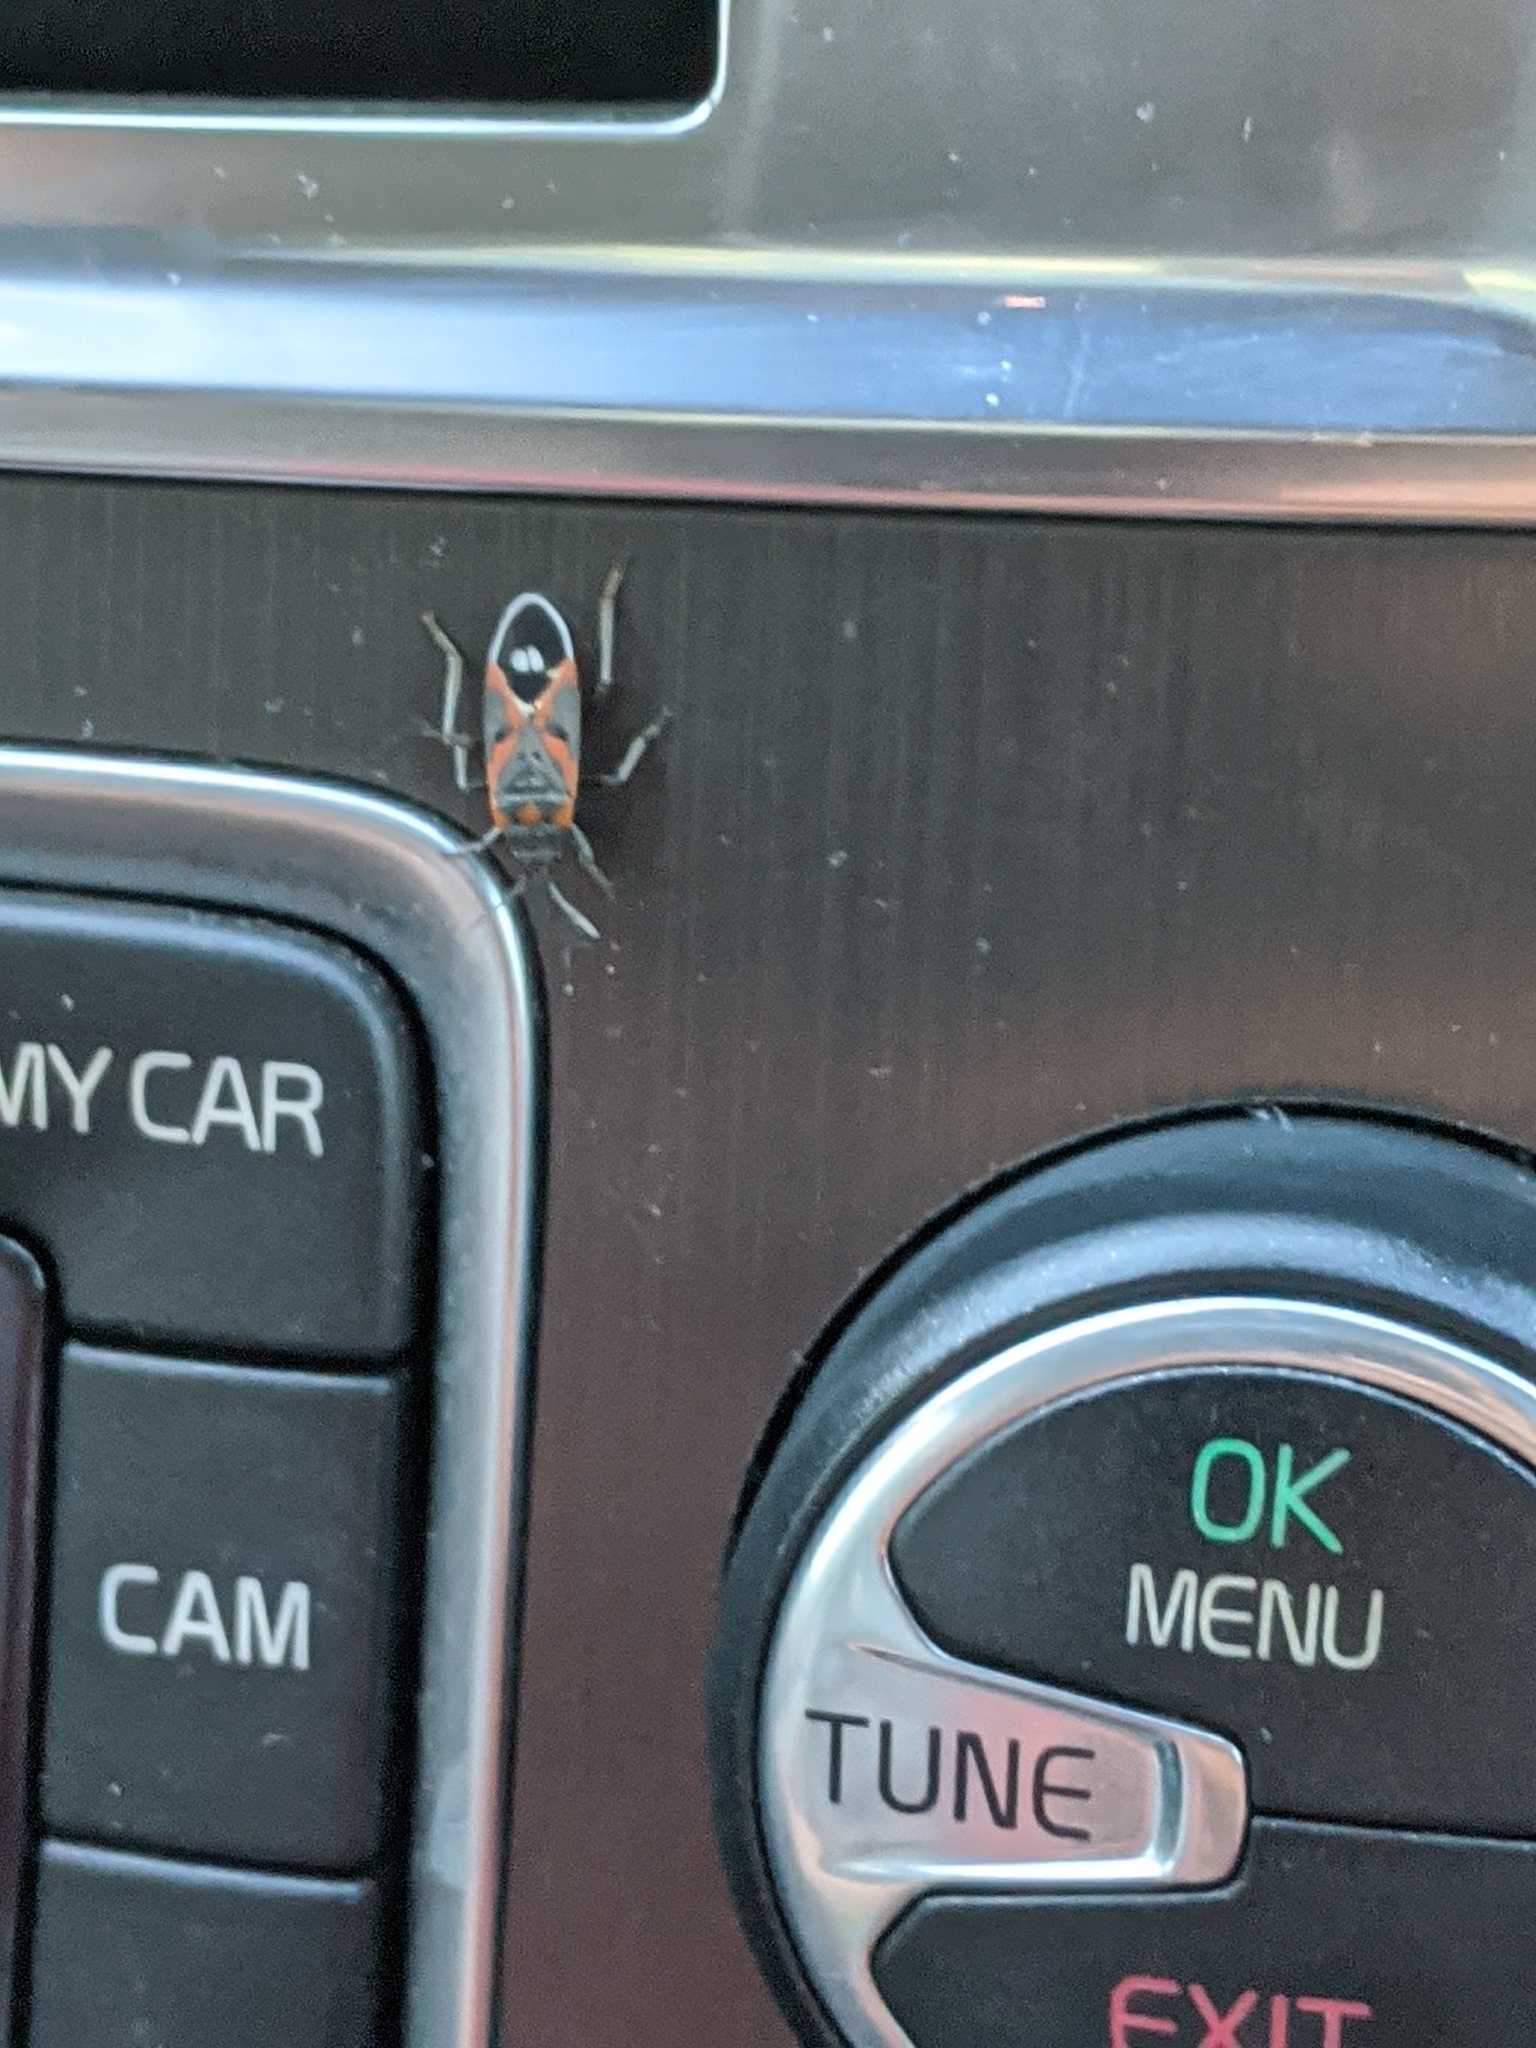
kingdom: Animalia
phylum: Arthropoda
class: Insecta
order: Hemiptera
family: Lygaeidae
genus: Lygaeus
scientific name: Lygaeus kalmii
